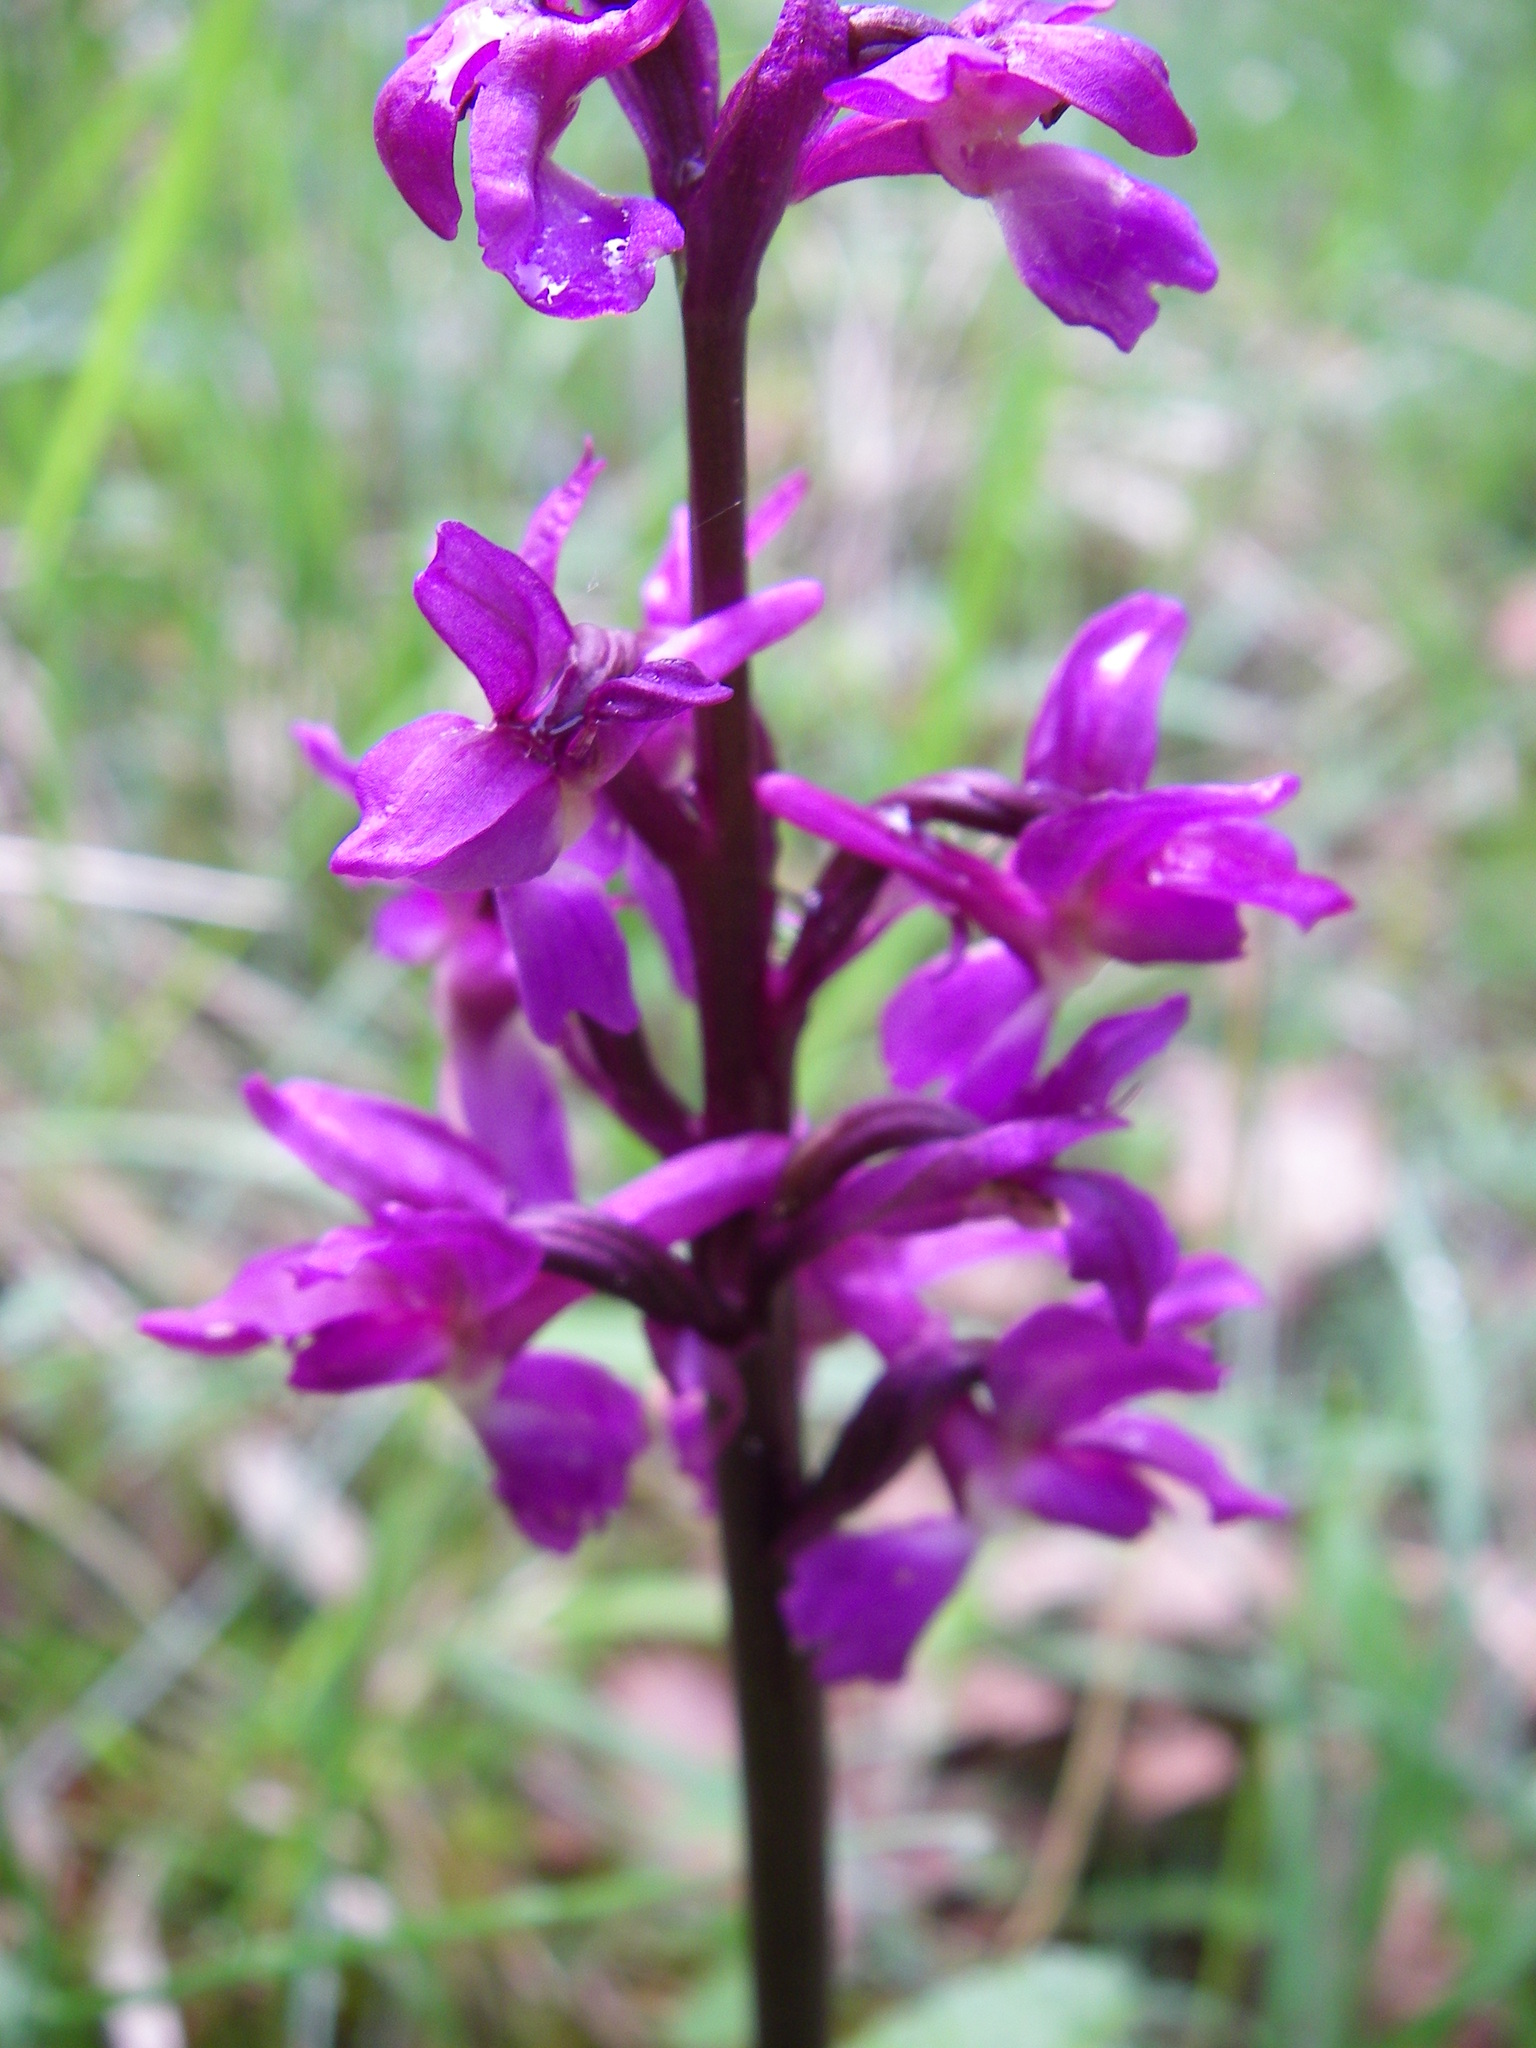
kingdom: Plantae
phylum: Tracheophyta
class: Liliopsida
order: Asparagales
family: Orchidaceae
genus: Orchis
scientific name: Orchis mascula
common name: Early-purple orchid
